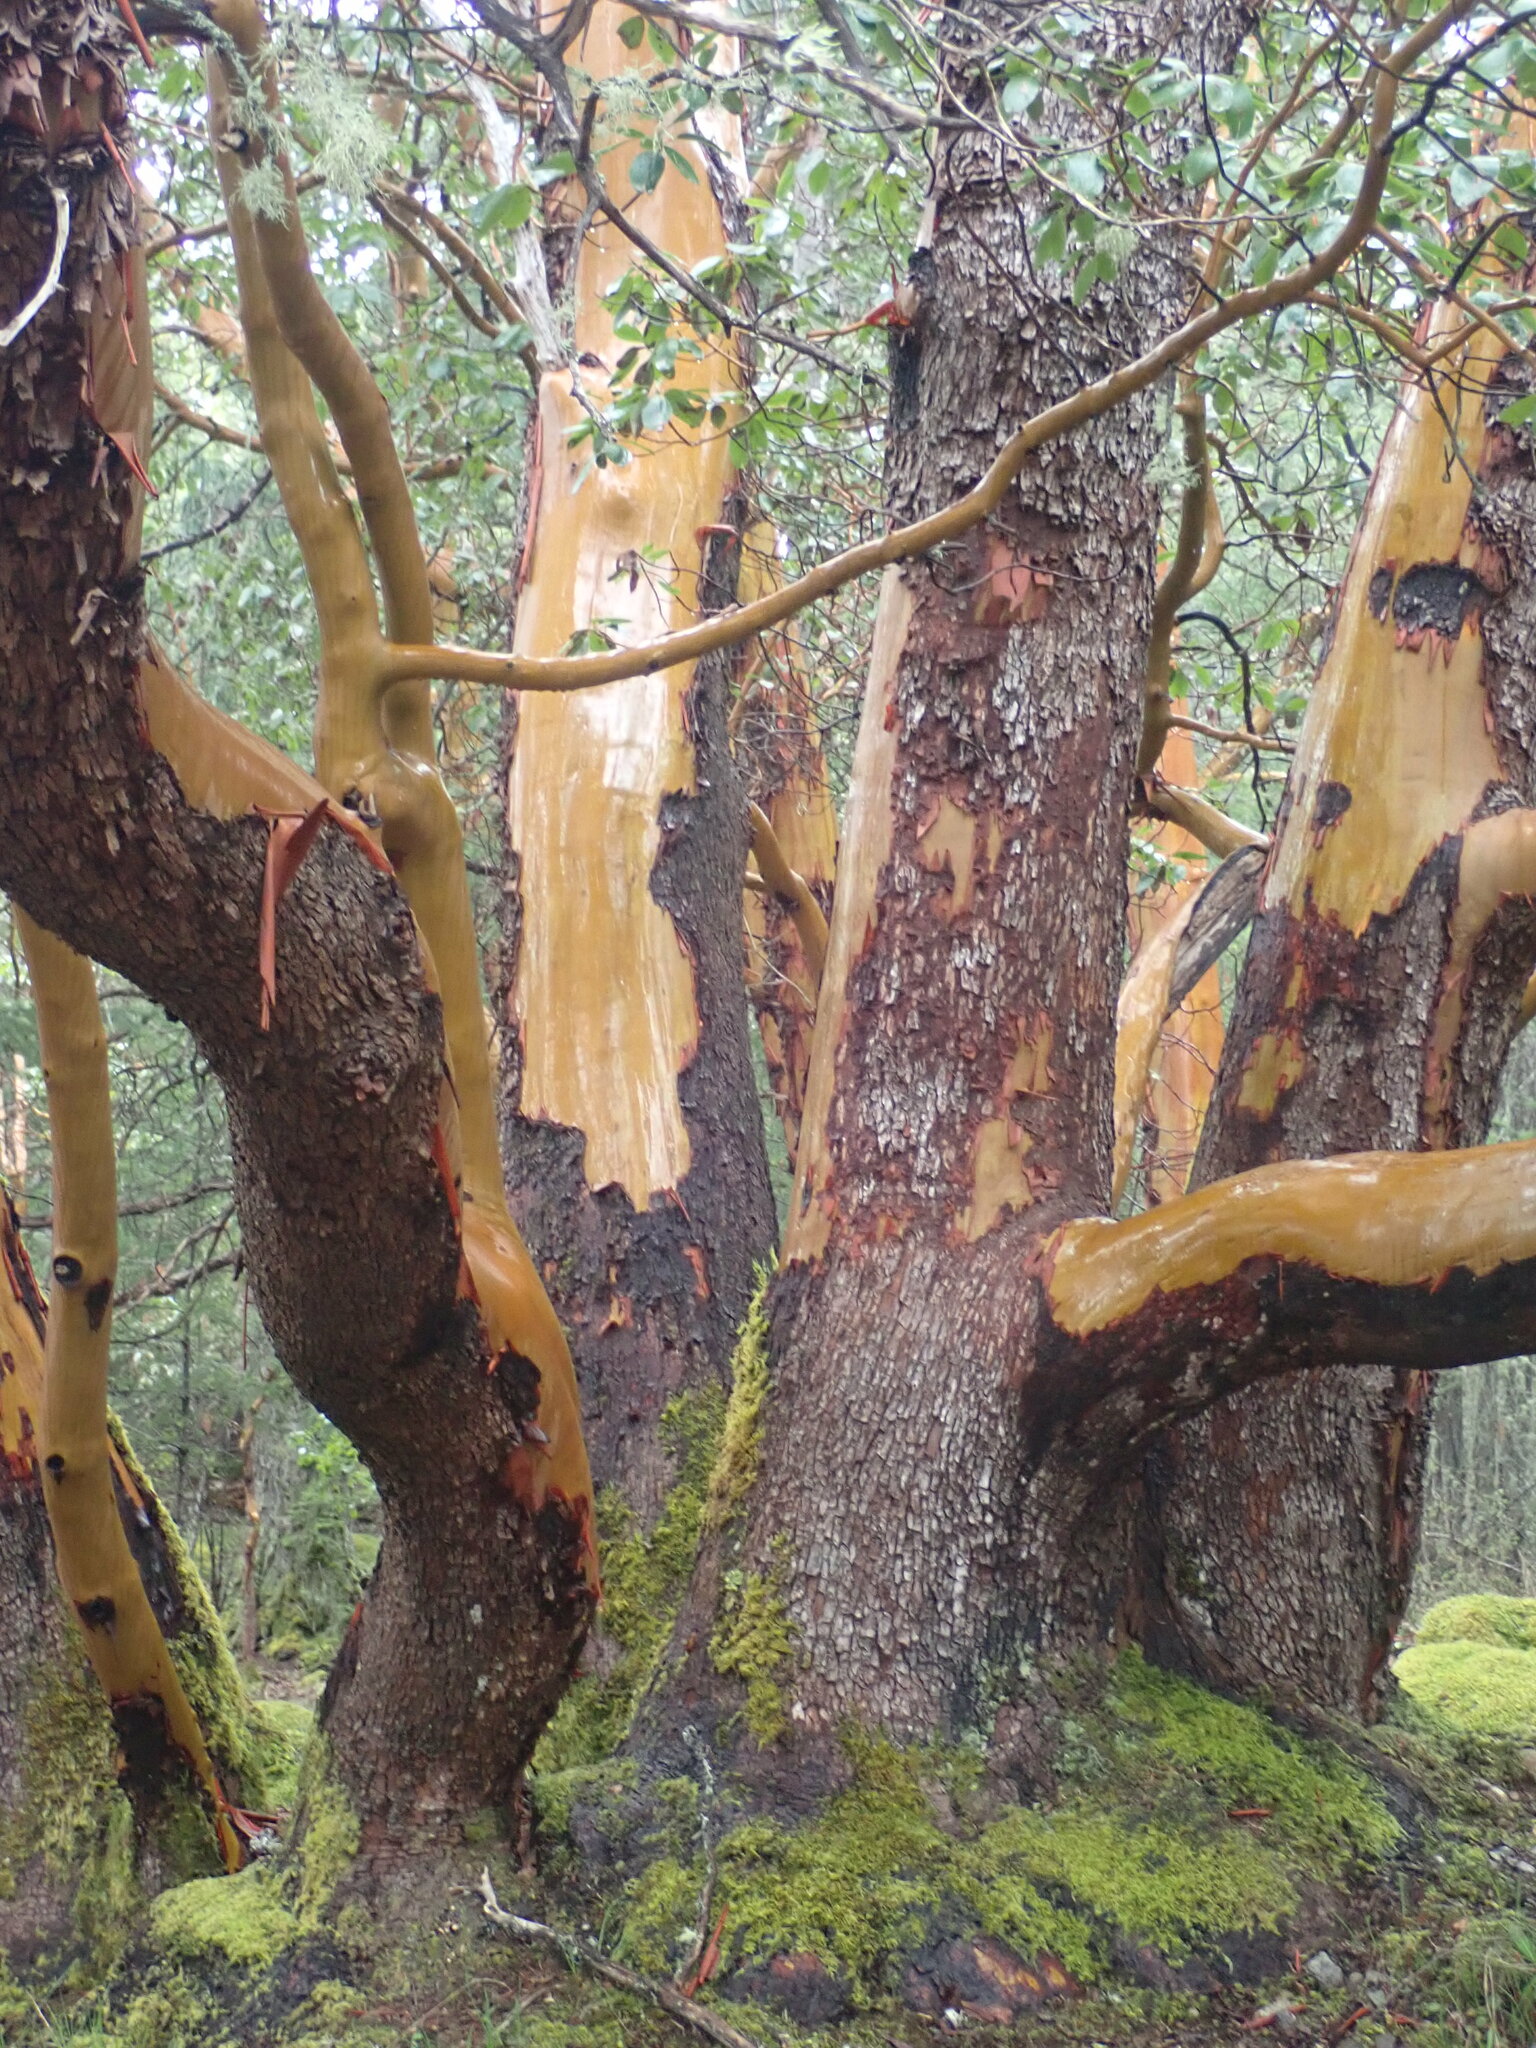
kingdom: Plantae
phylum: Tracheophyta
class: Magnoliopsida
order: Ericales
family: Ericaceae
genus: Arbutus
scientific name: Arbutus menziesii
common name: Pacific madrone
